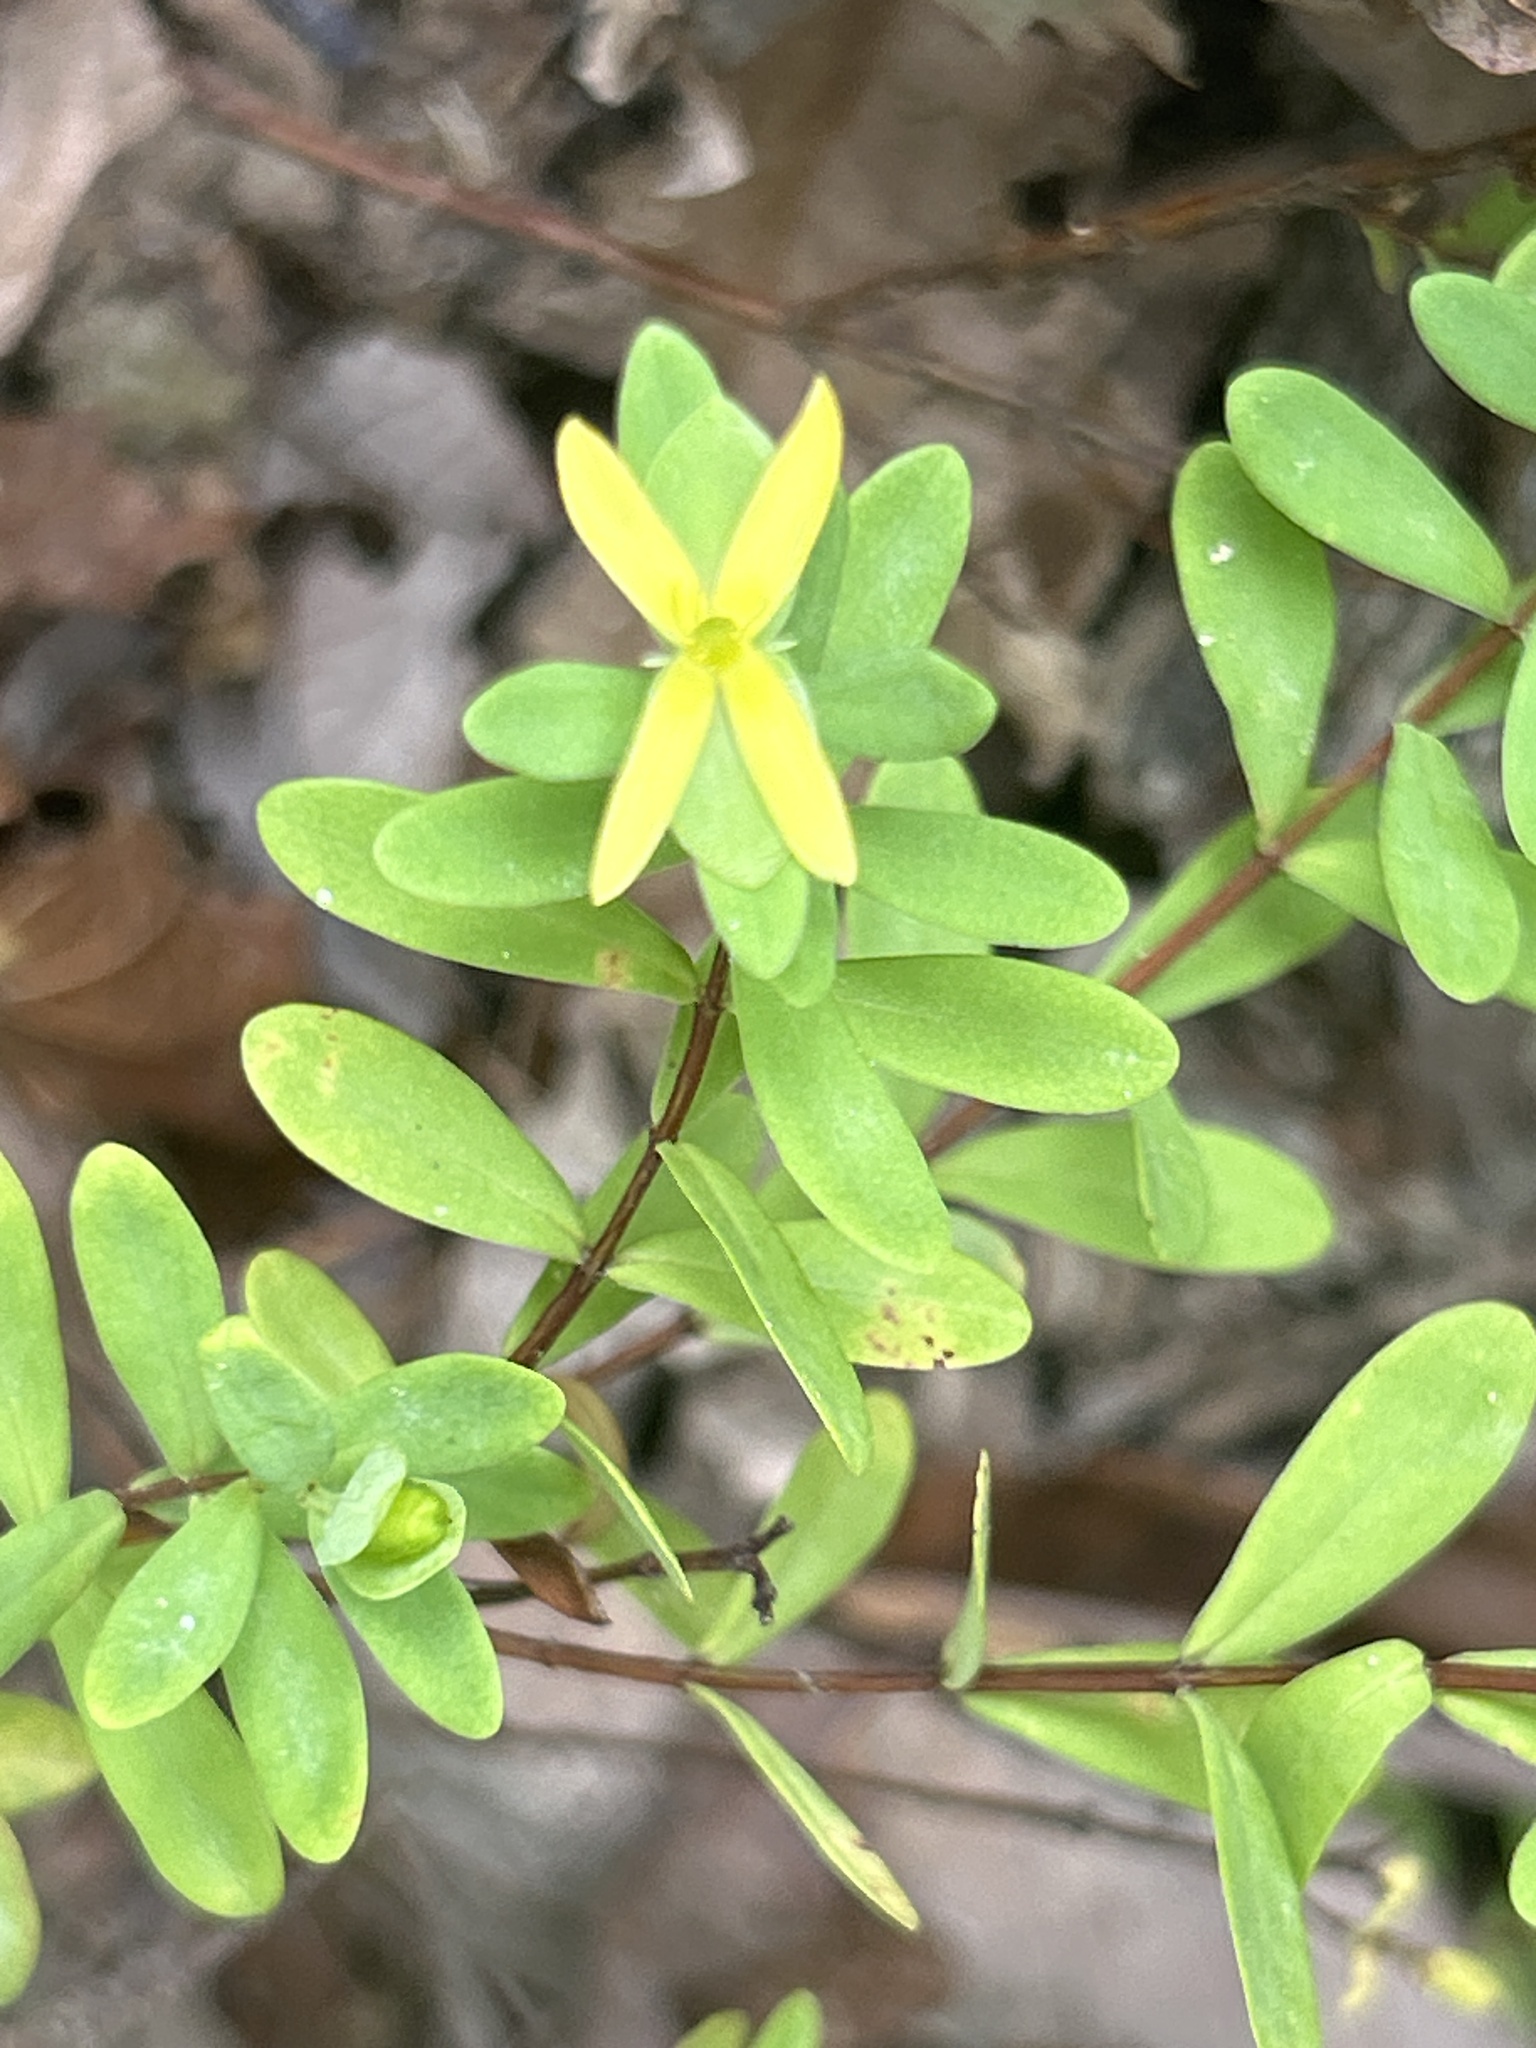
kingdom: Plantae
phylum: Tracheophyta
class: Magnoliopsida
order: Malpighiales
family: Hypericaceae
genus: Hypericum
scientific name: Hypericum hypericoides
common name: St. andrew's cross
